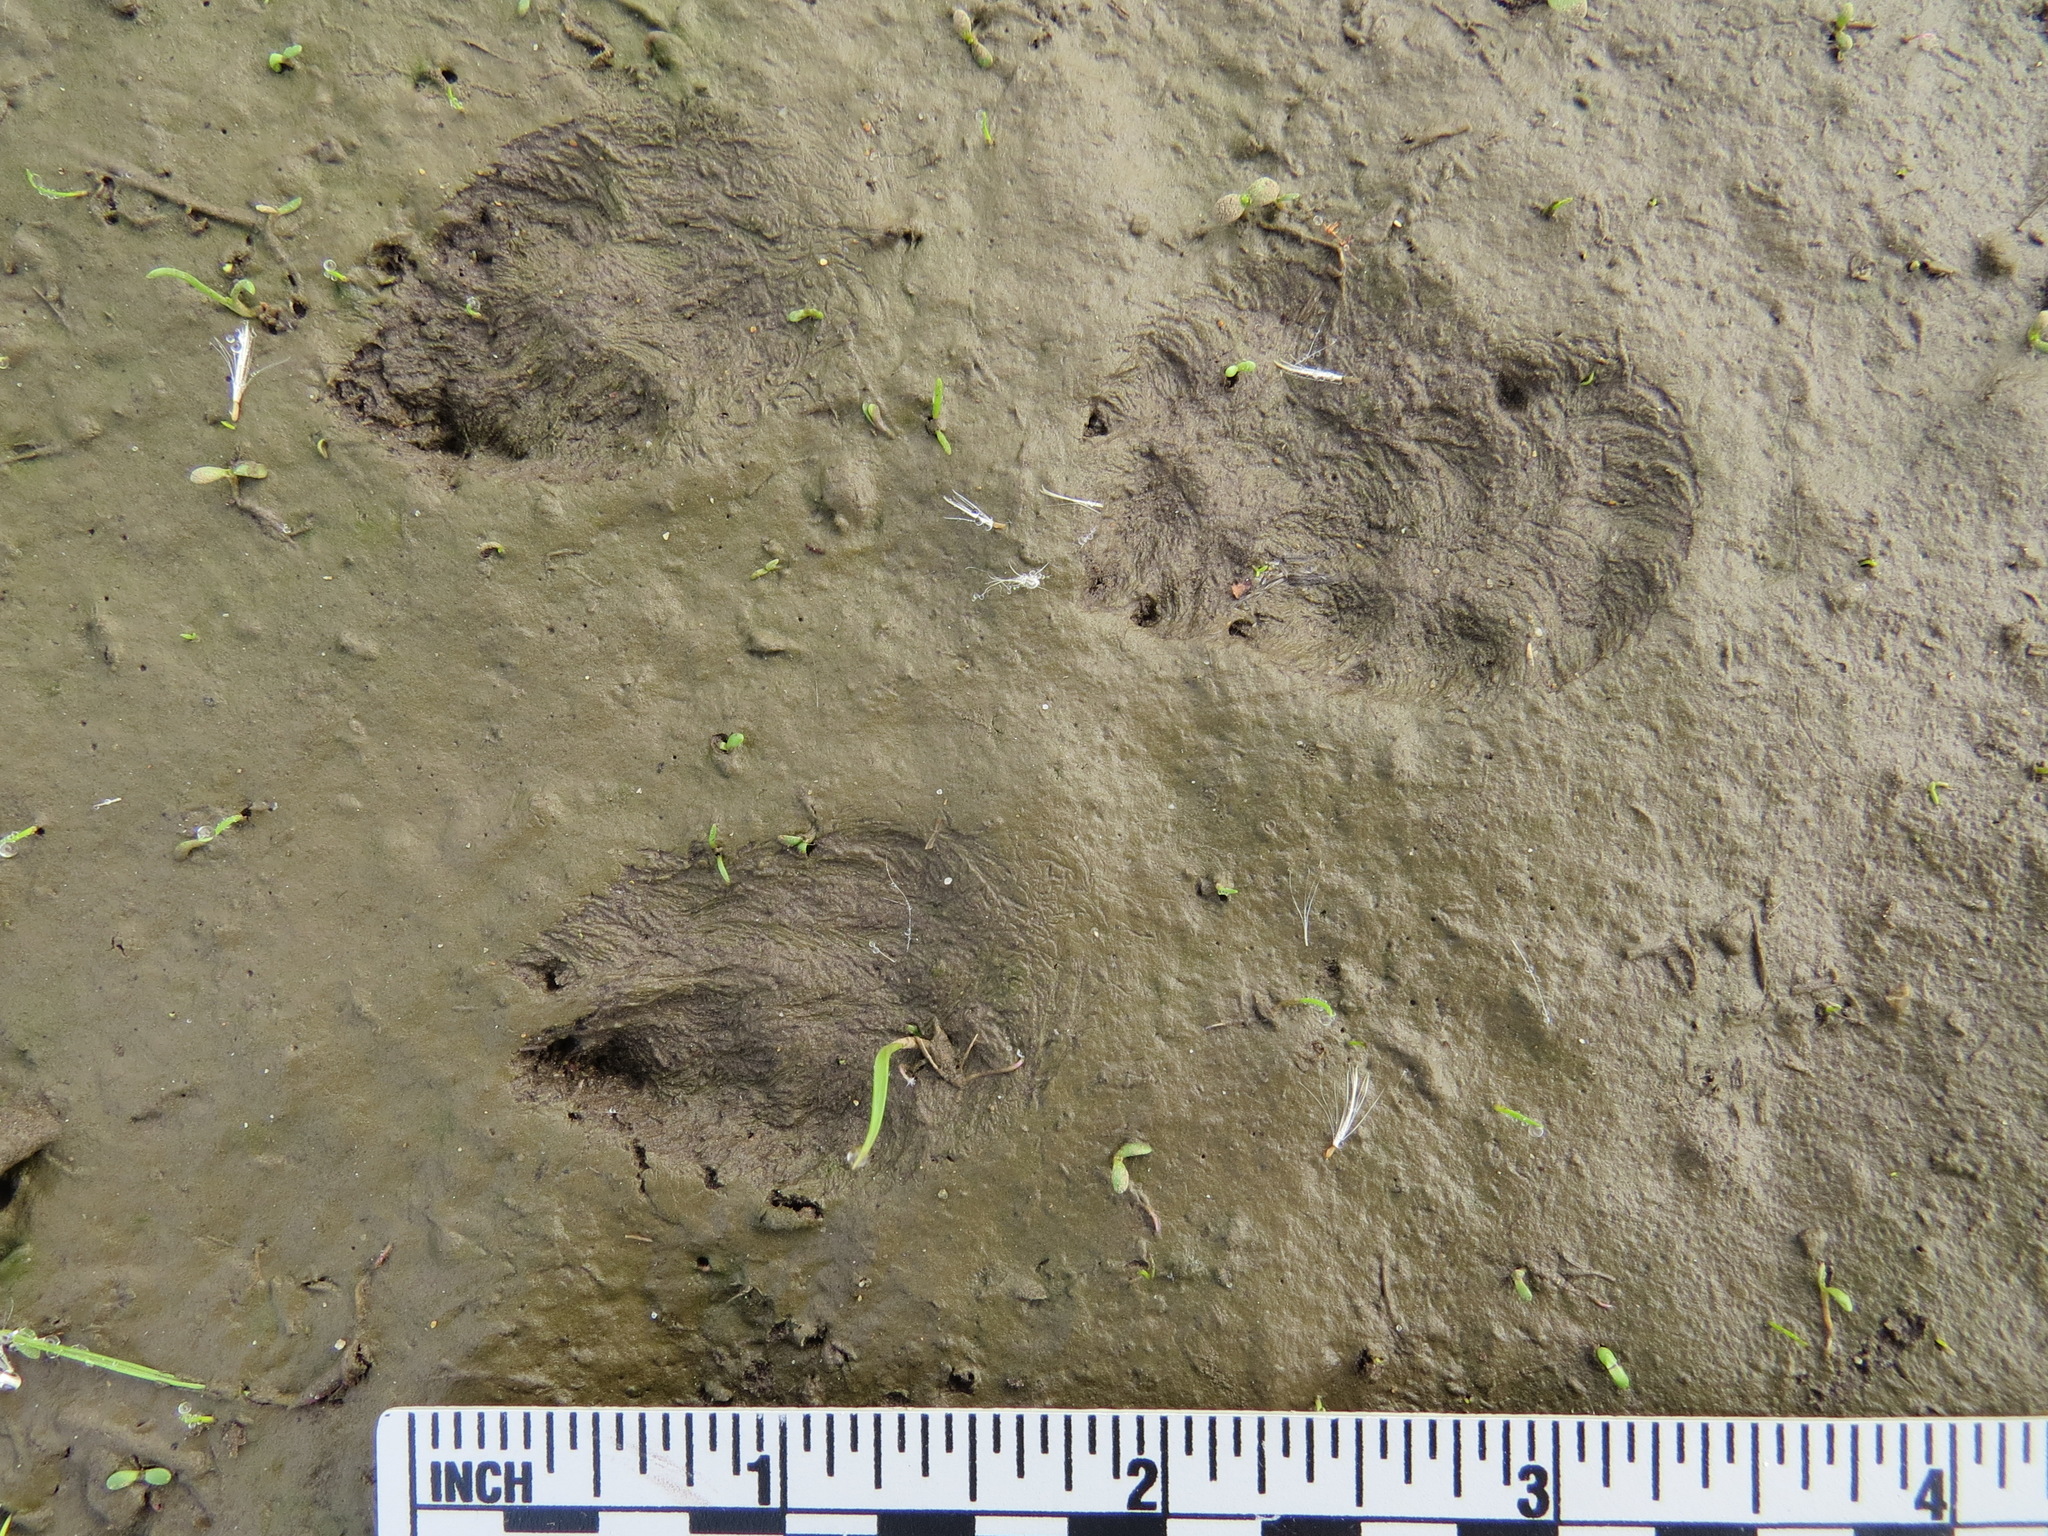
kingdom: Animalia
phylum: Chordata
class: Mammalia
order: Lagomorpha
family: Leporidae
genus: Sylvilagus
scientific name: Sylvilagus bachmani
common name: Brush rabbit
